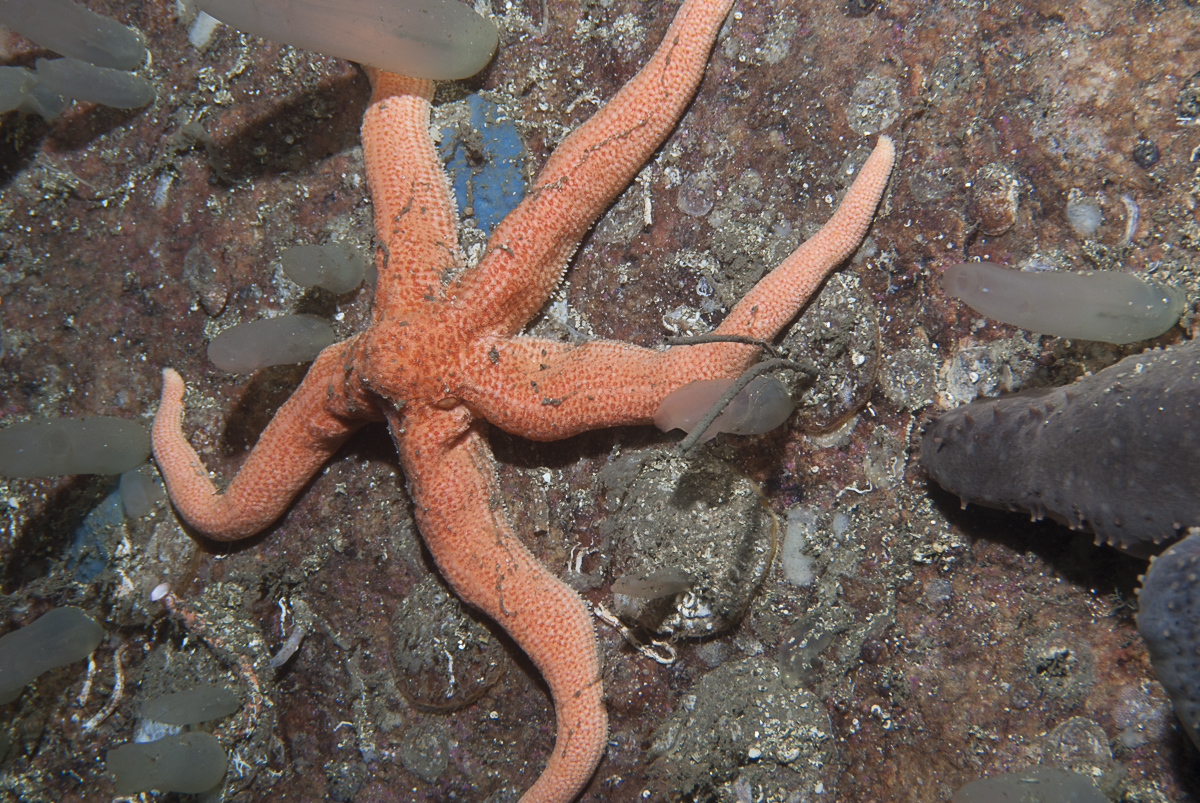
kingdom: Animalia
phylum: Echinodermata
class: Asteroidea
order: Forcipulatida
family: Stichasteridae
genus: Stichastrella
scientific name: Stichastrella rosea
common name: Rosy starfish
